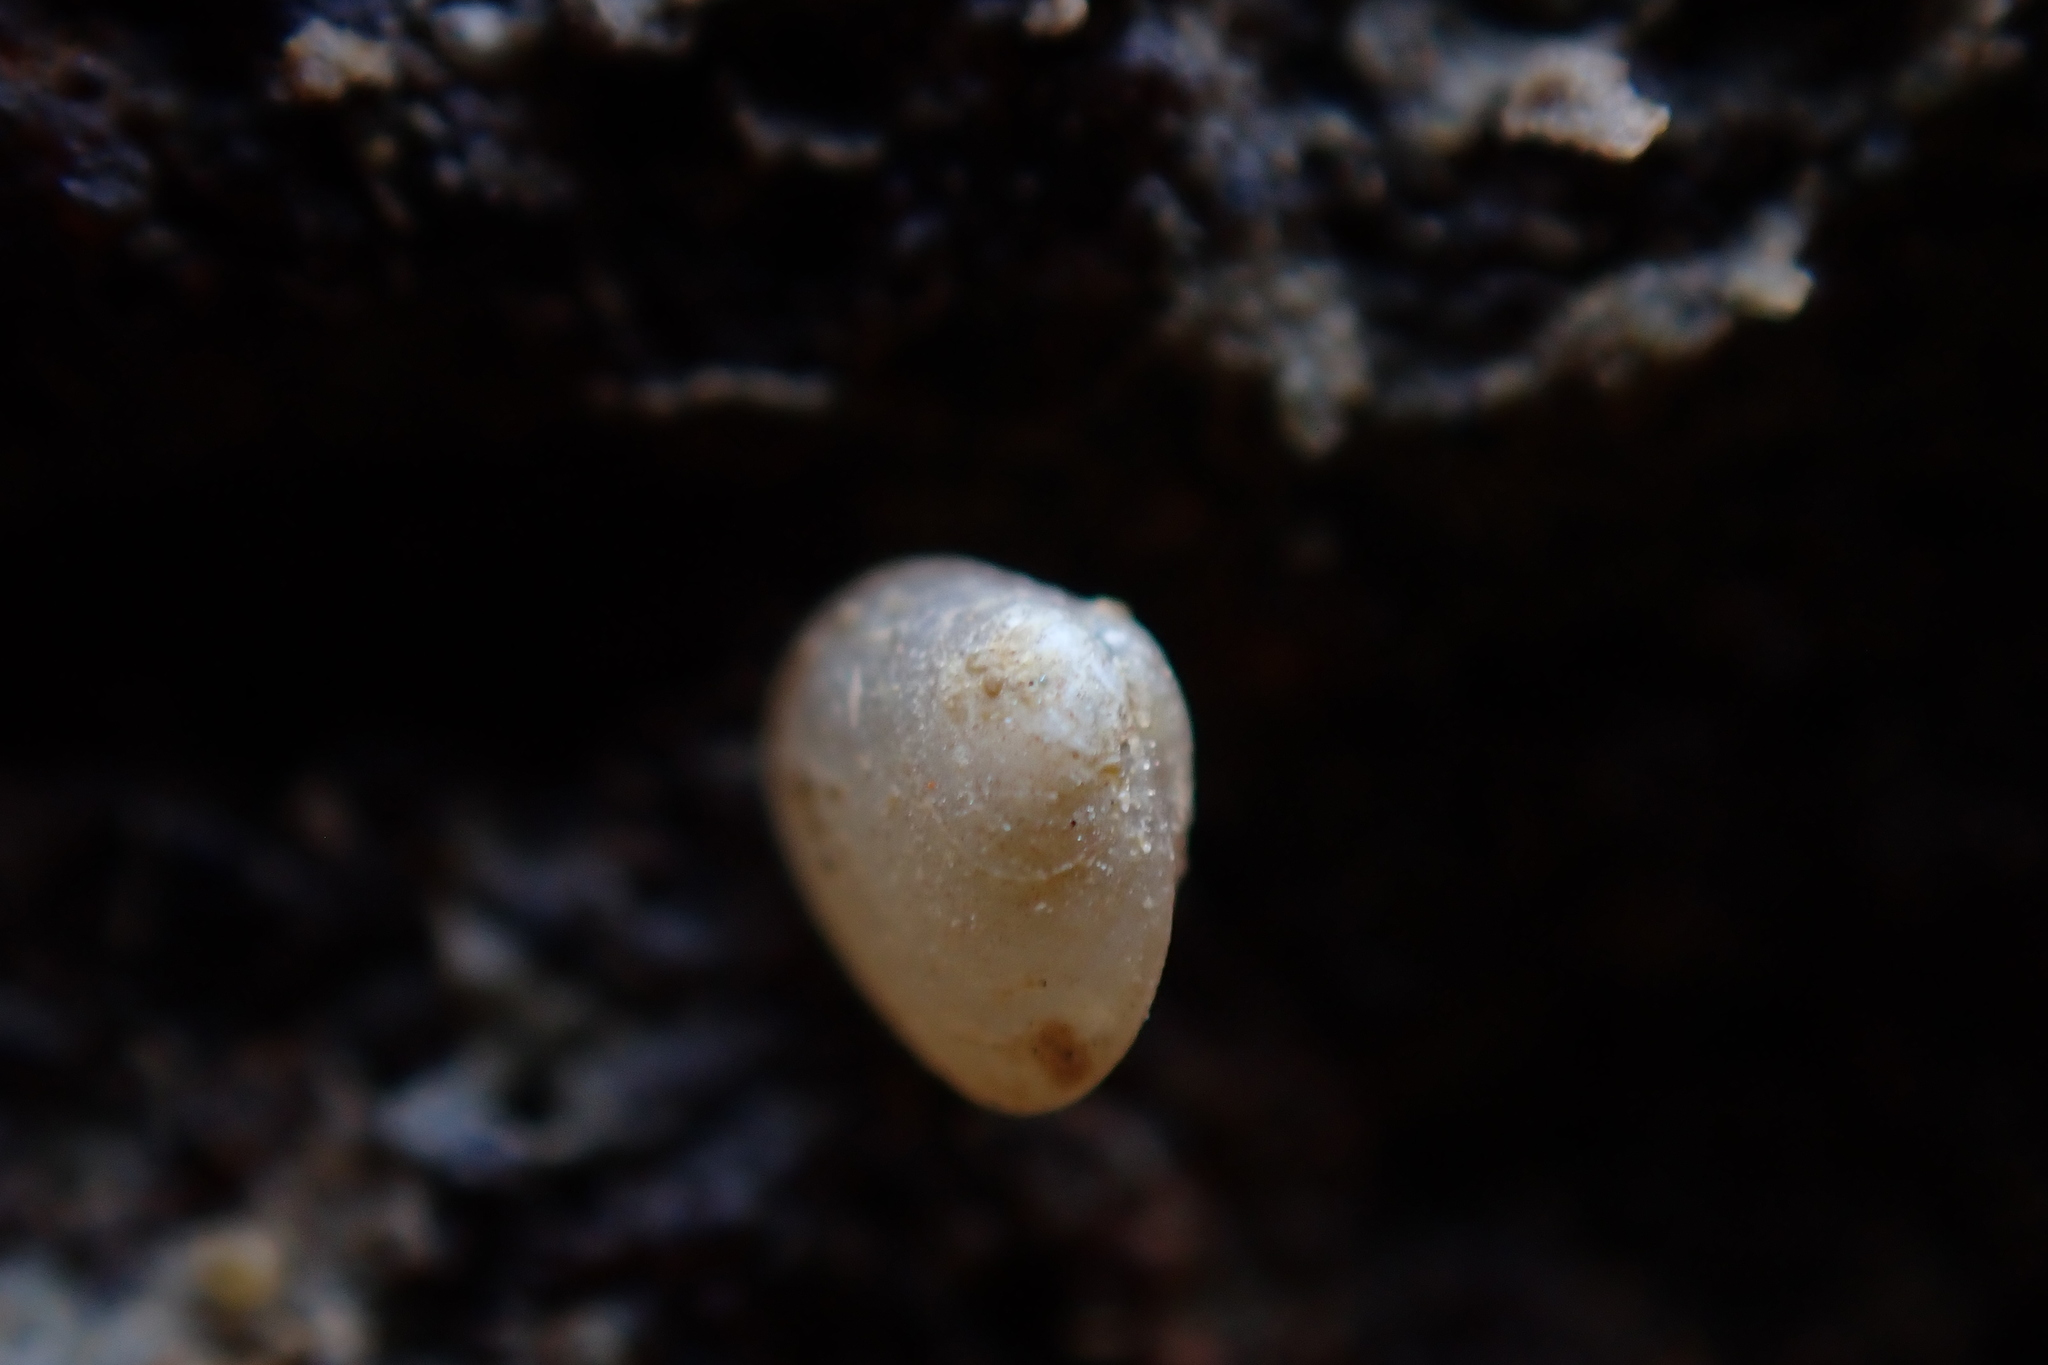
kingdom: Animalia
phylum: Mollusca
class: Bivalvia
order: Galeommatida
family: Lasaeidae
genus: Lasaea
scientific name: Lasaea maoria
